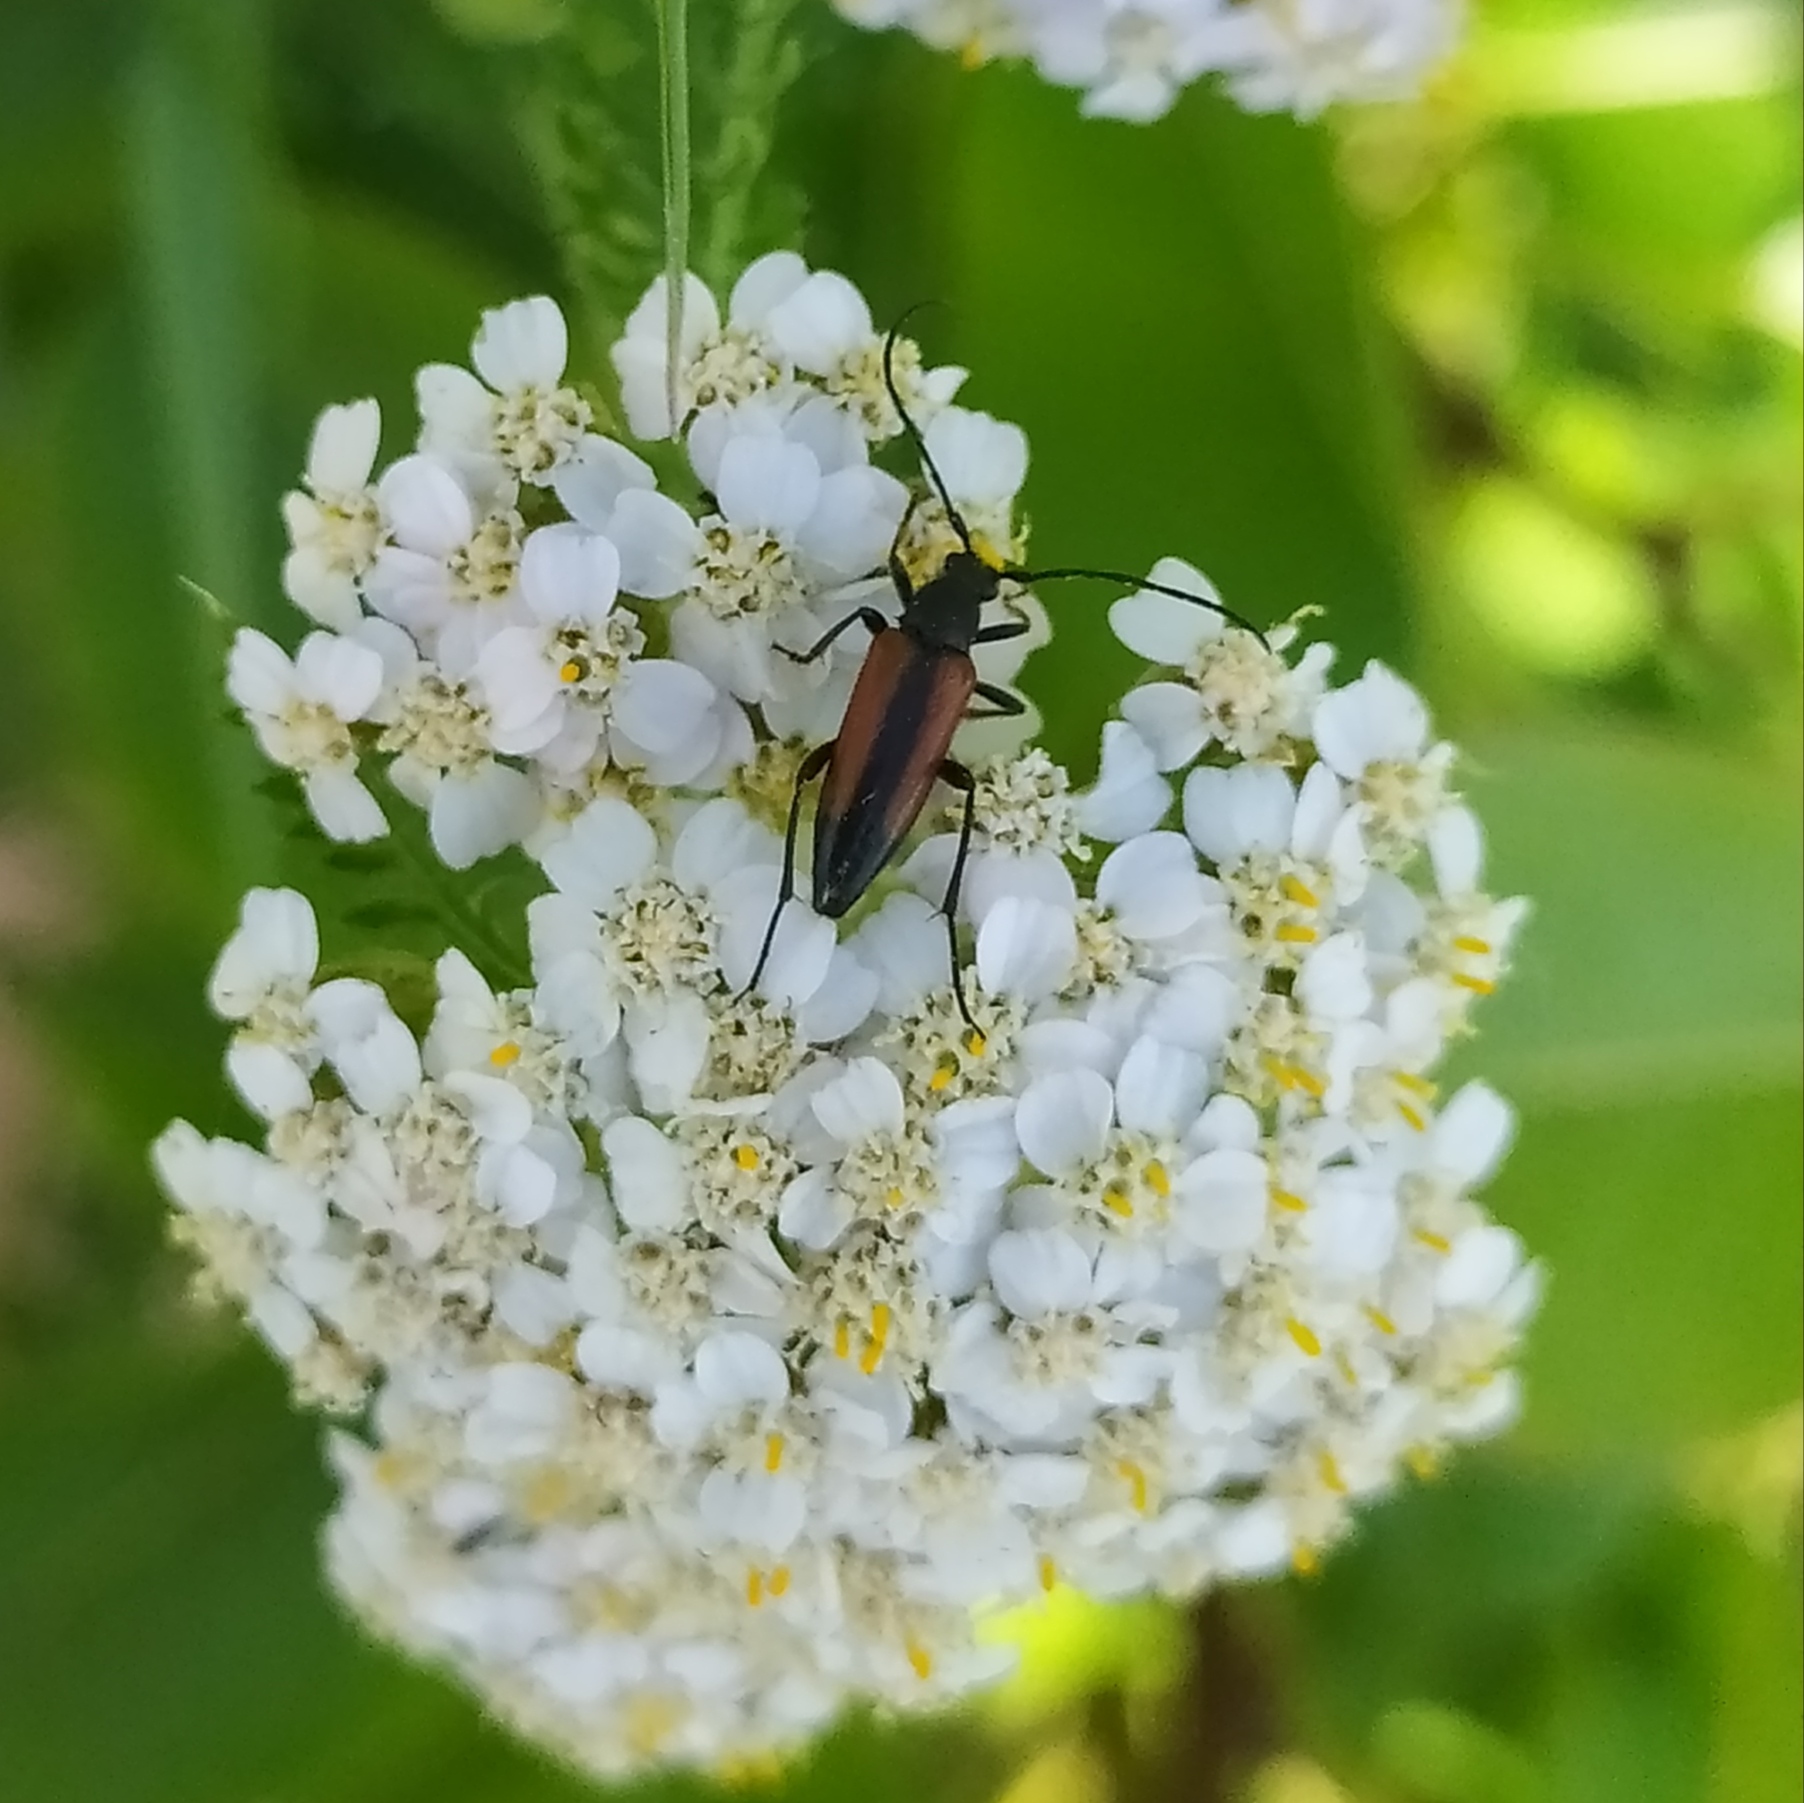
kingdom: Animalia
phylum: Arthropoda
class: Insecta
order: Coleoptera
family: Cerambycidae
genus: Stenurella
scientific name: Stenurella melanura
